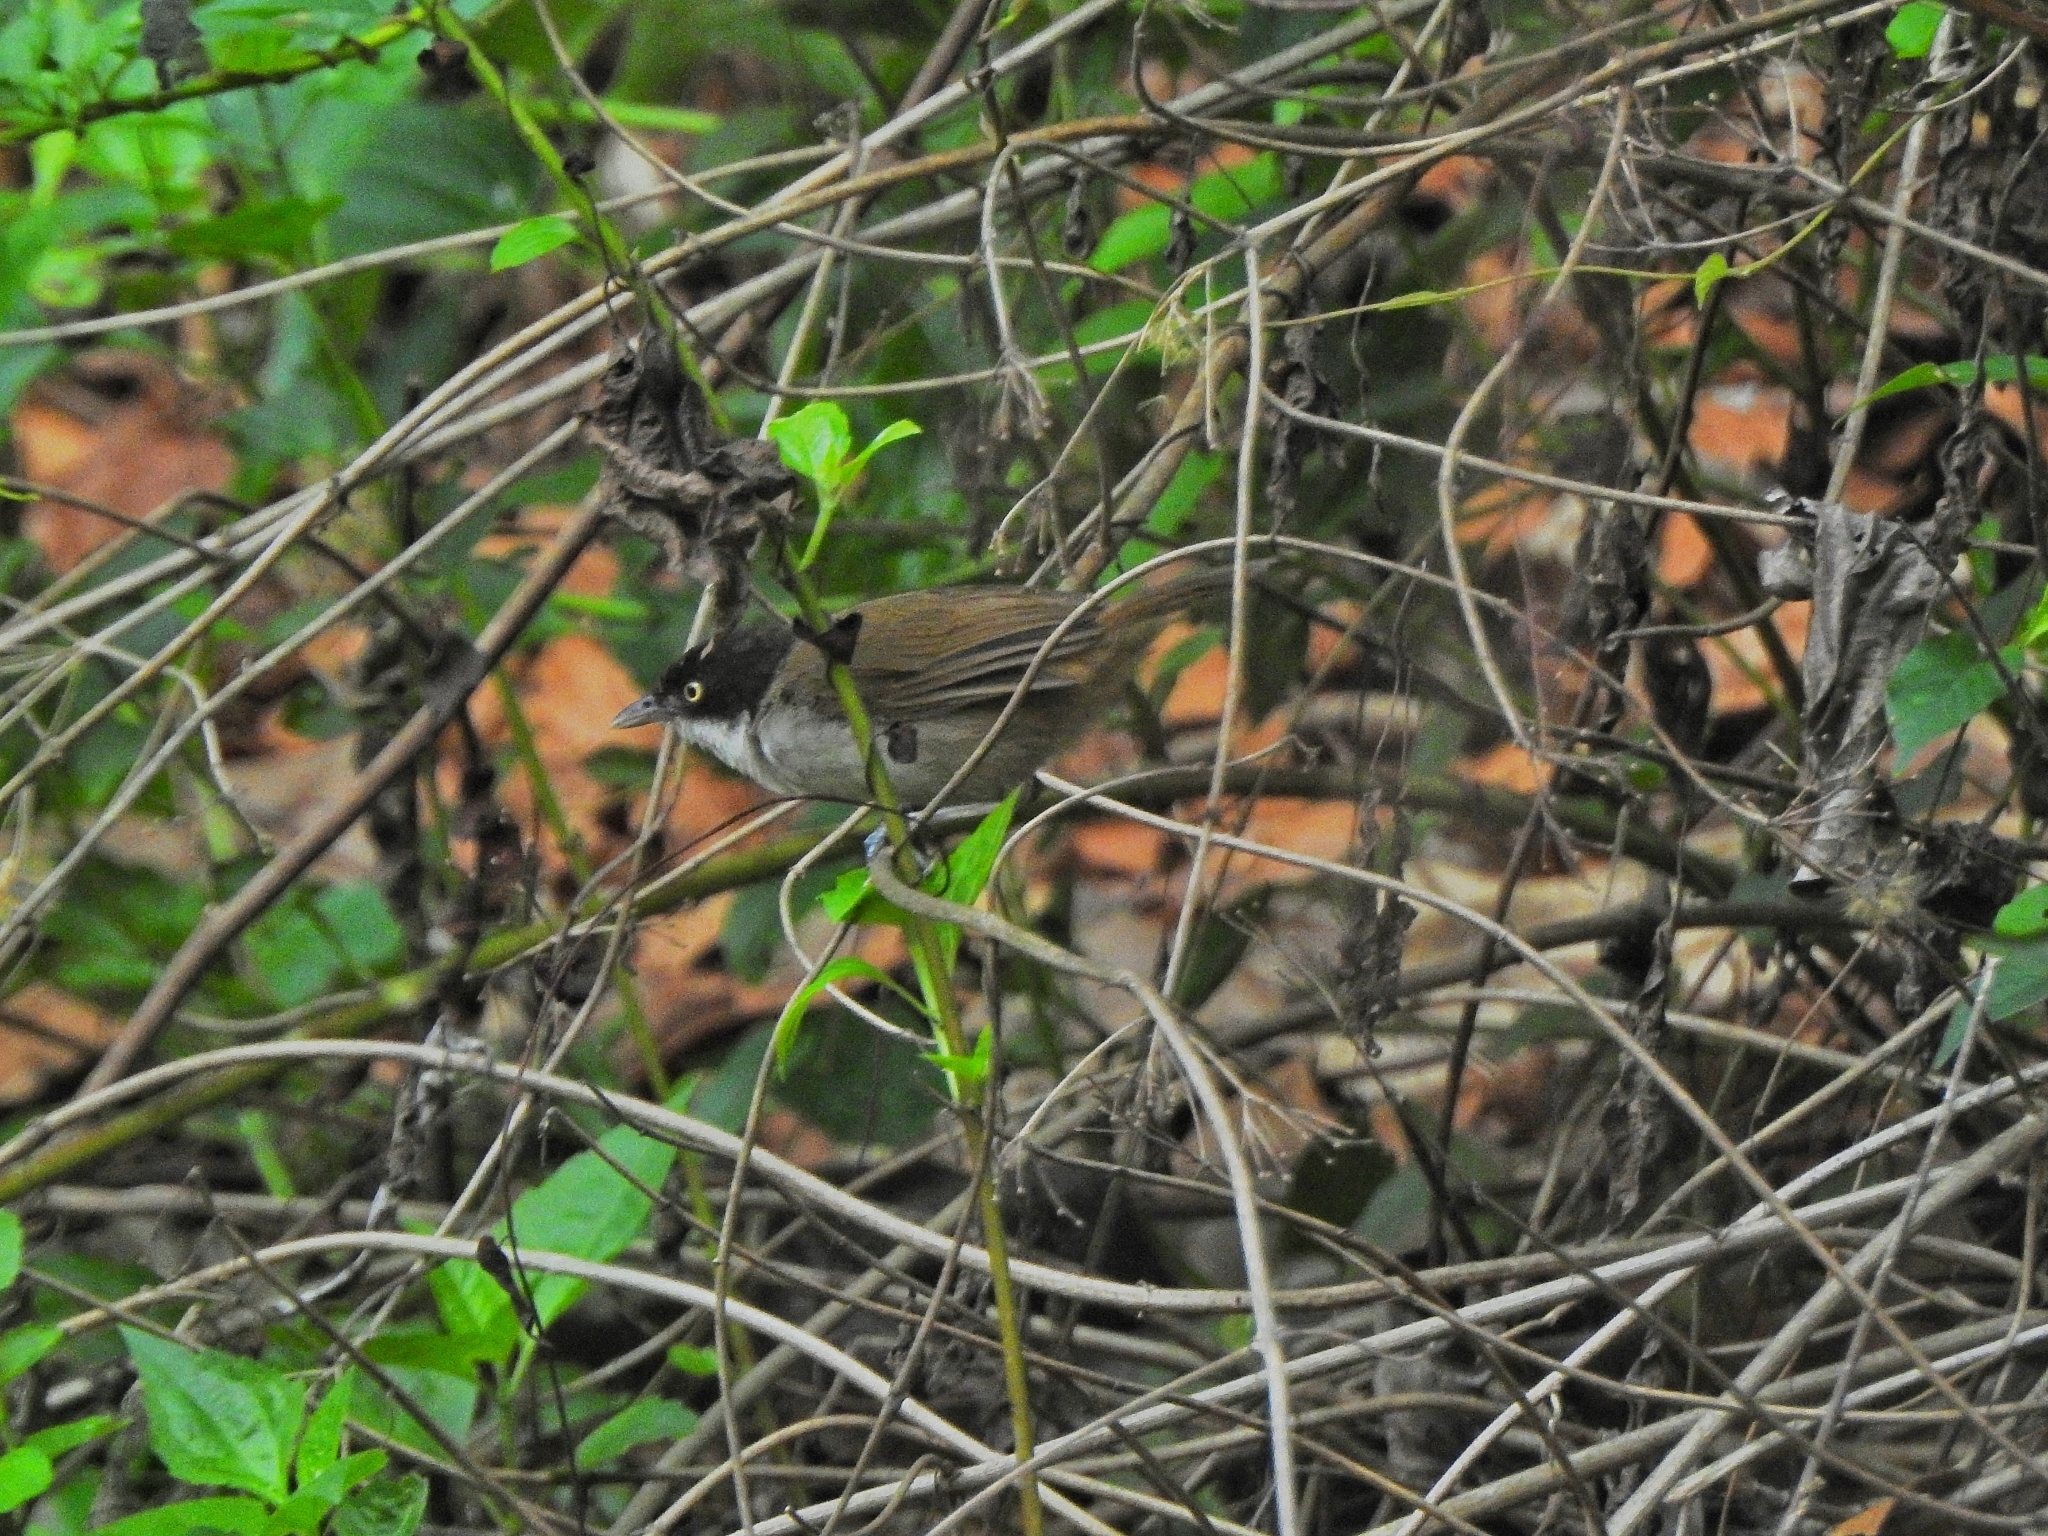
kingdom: Animalia
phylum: Chordata
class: Aves
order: Passeriformes
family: Timaliidae
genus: Rhopocichla
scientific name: Rhopocichla atriceps
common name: Dark-fronted babbler
